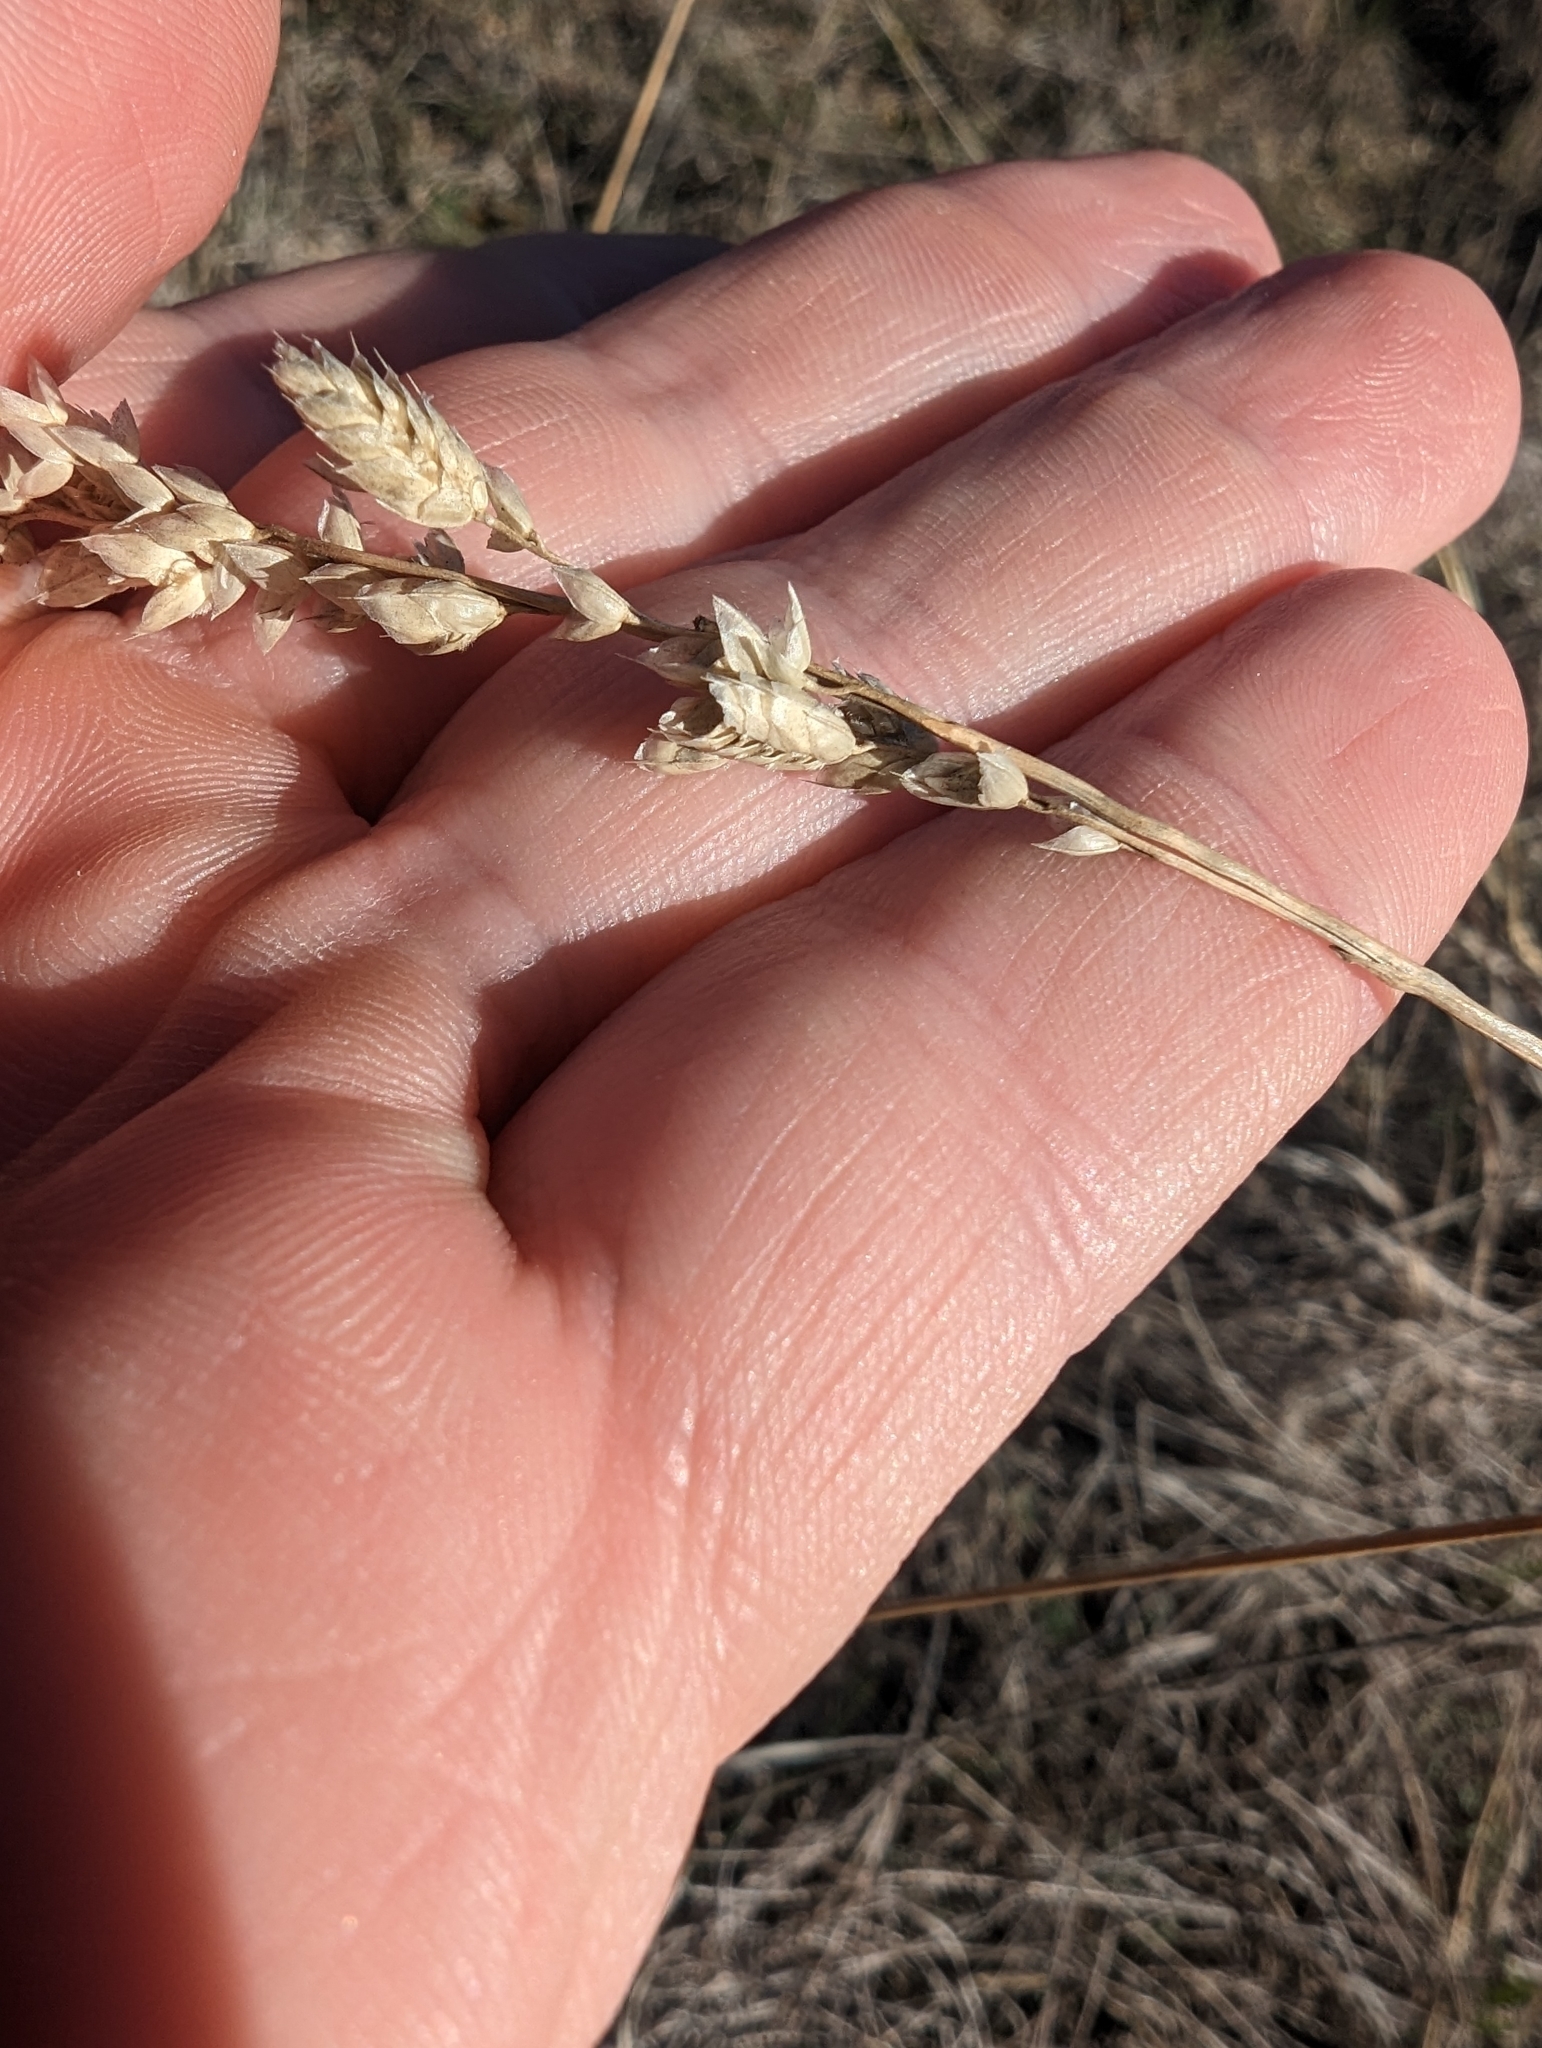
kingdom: Plantae
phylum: Tracheophyta
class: Liliopsida
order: Poales
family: Poaceae
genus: Tridens
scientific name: Tridens congestus
